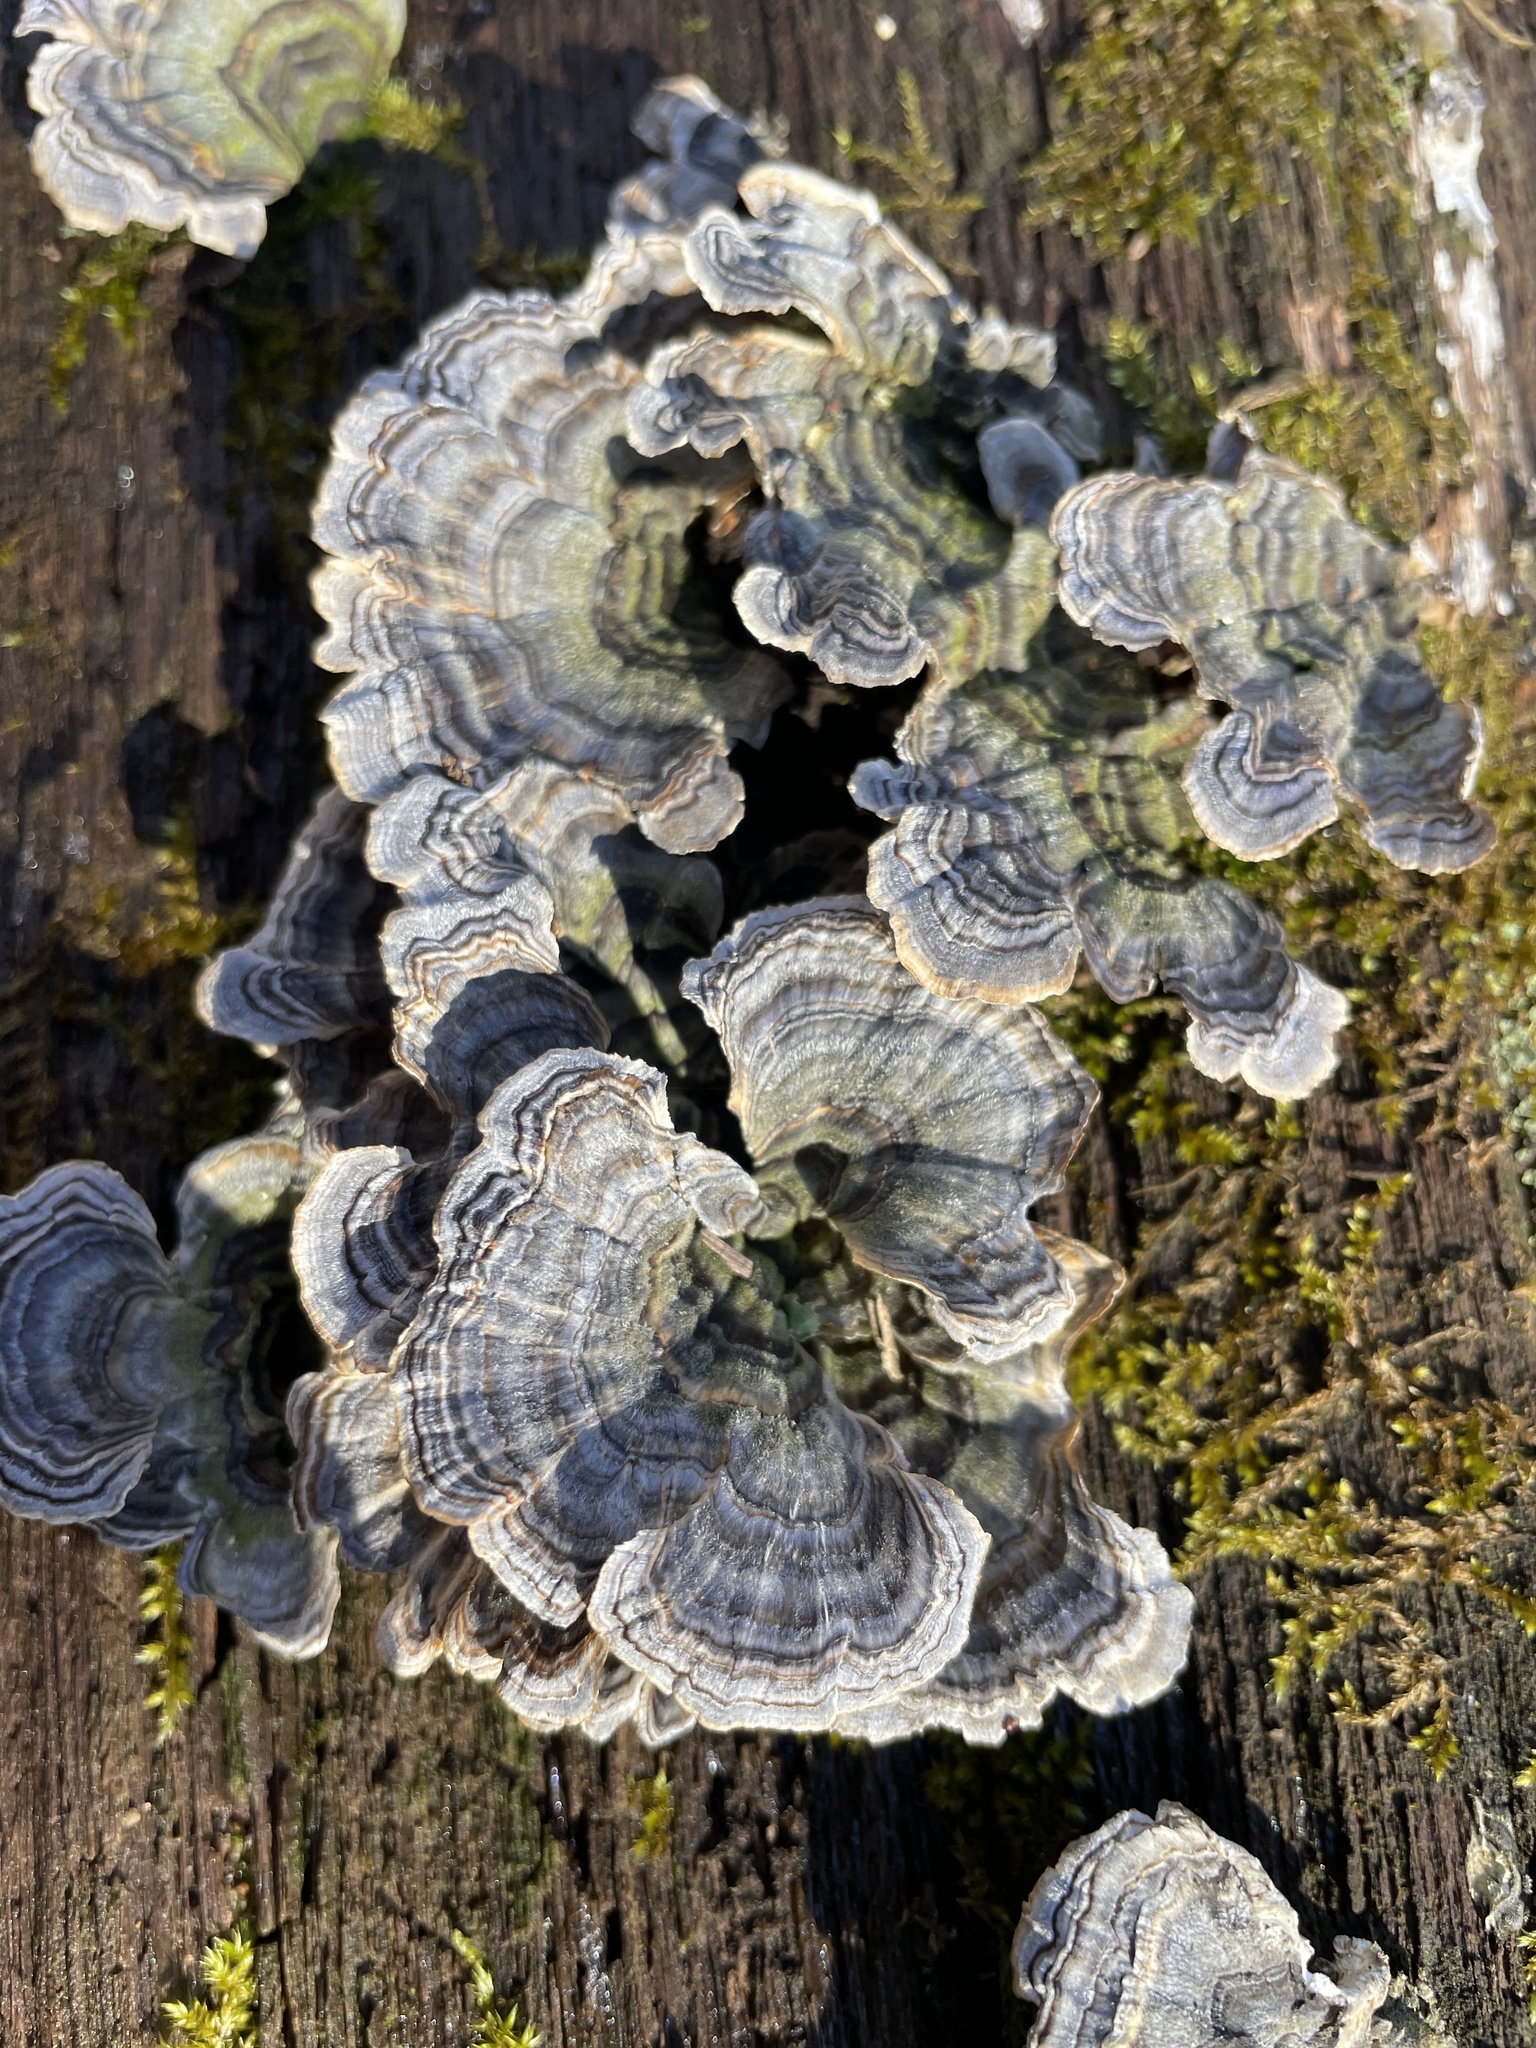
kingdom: Fungi
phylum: Basidiomycota
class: Agaricomycetes
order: Polyporales
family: Polyporaceae
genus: Trametes
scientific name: Trametes versicolor
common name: Turkeytail
